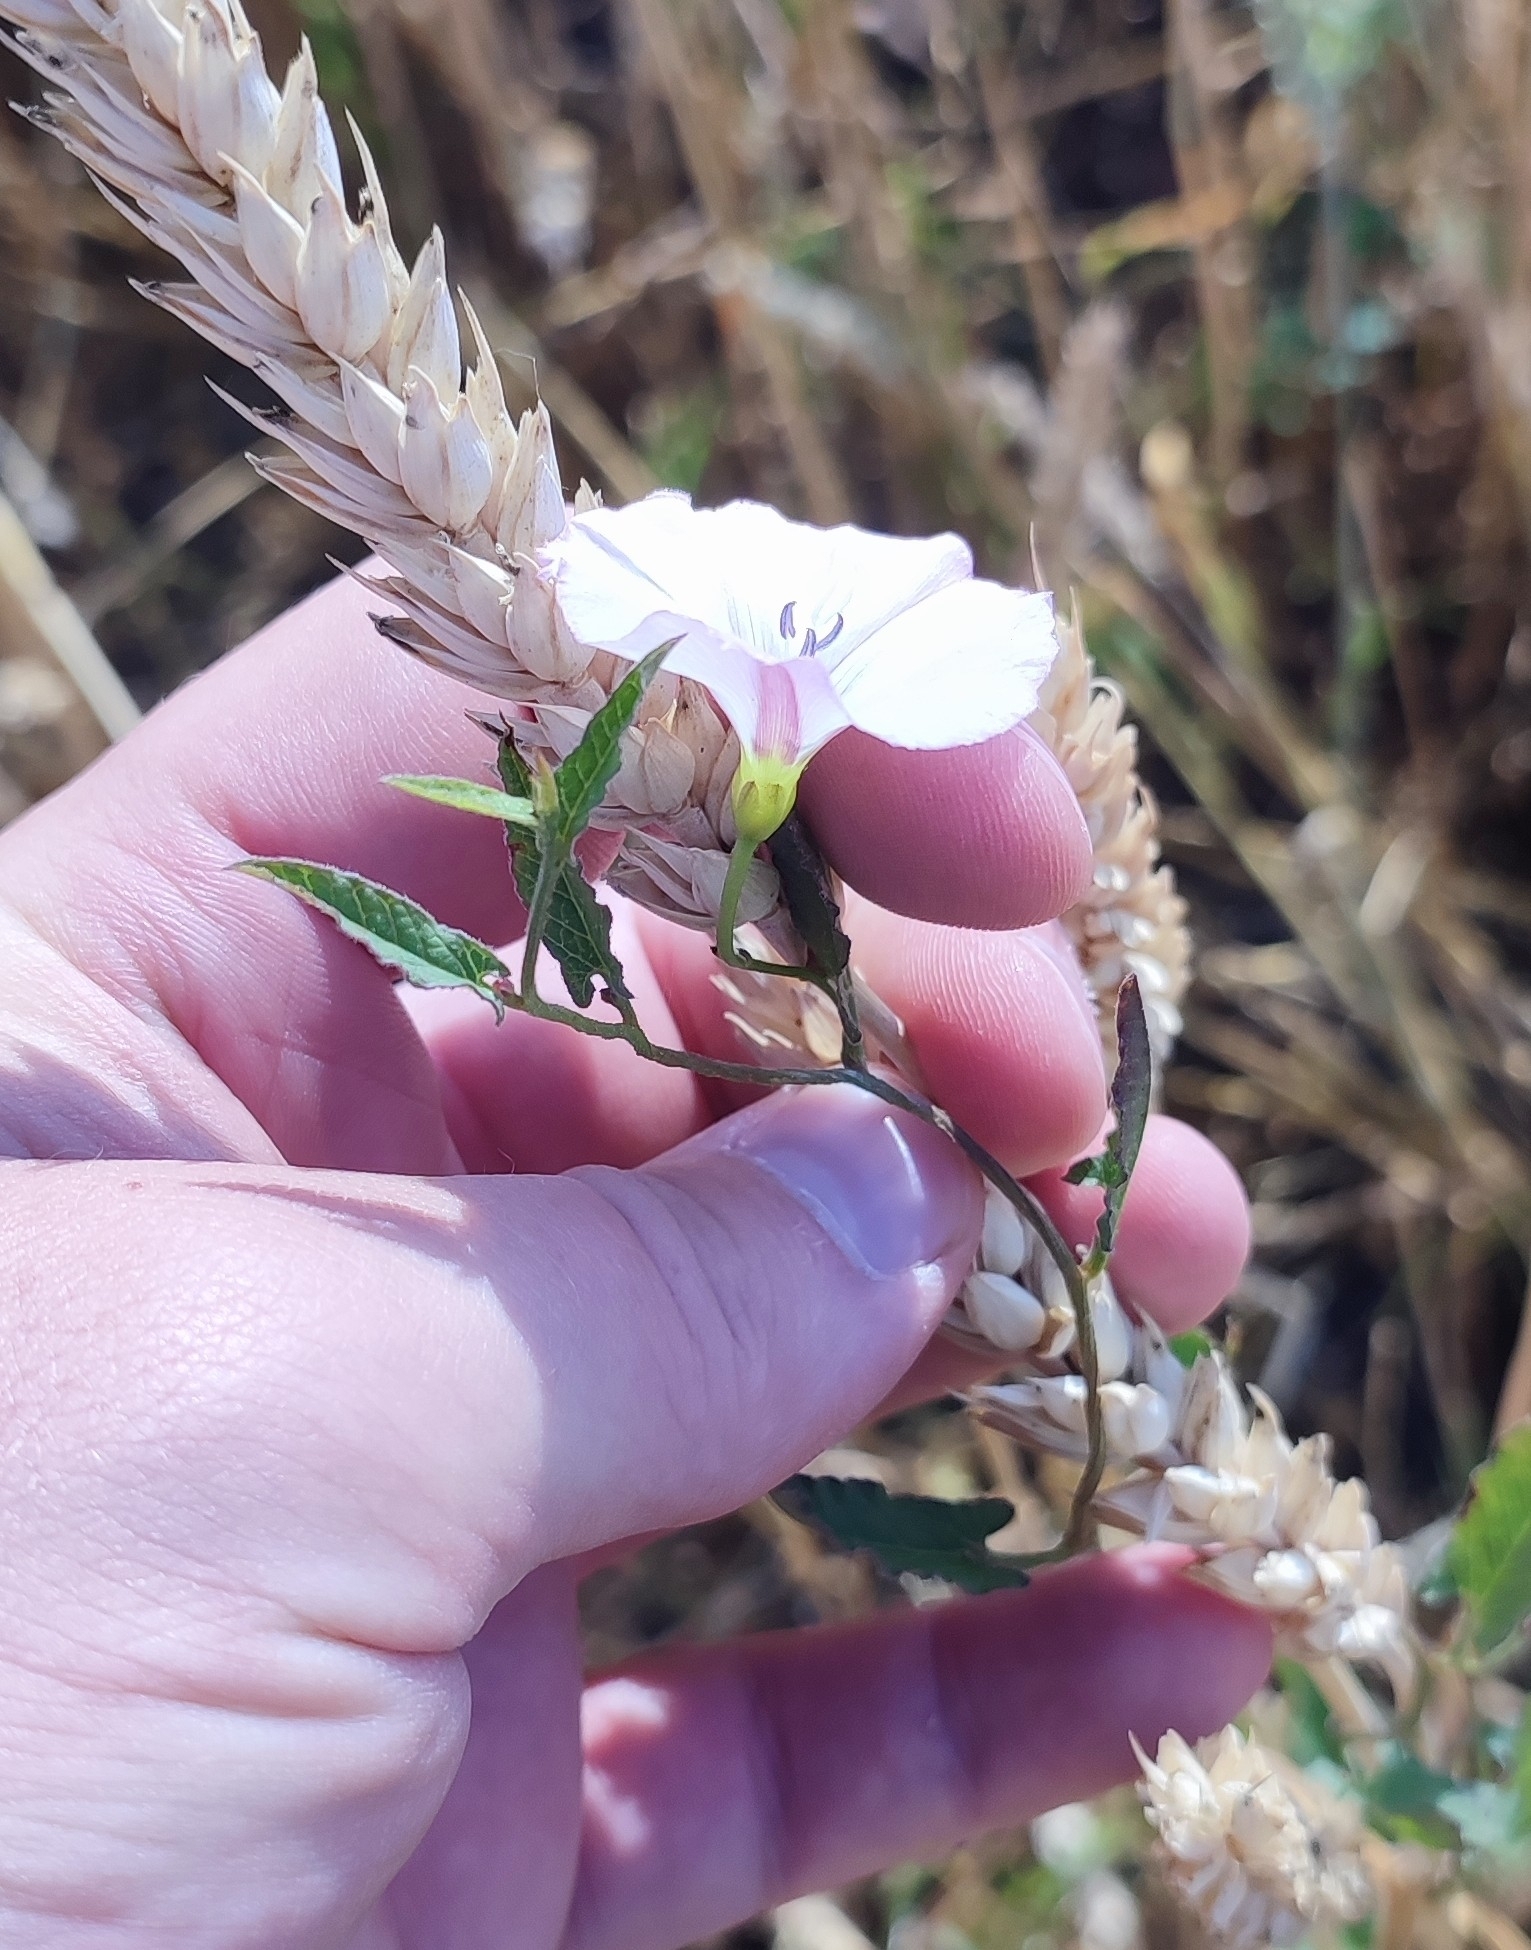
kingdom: Plantae
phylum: Tracheophyta
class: Magnoliopsida
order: Solanales
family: Convolvulaceae
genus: Convolvulus
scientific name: Convolvulus arvensis
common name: Field bindweed
